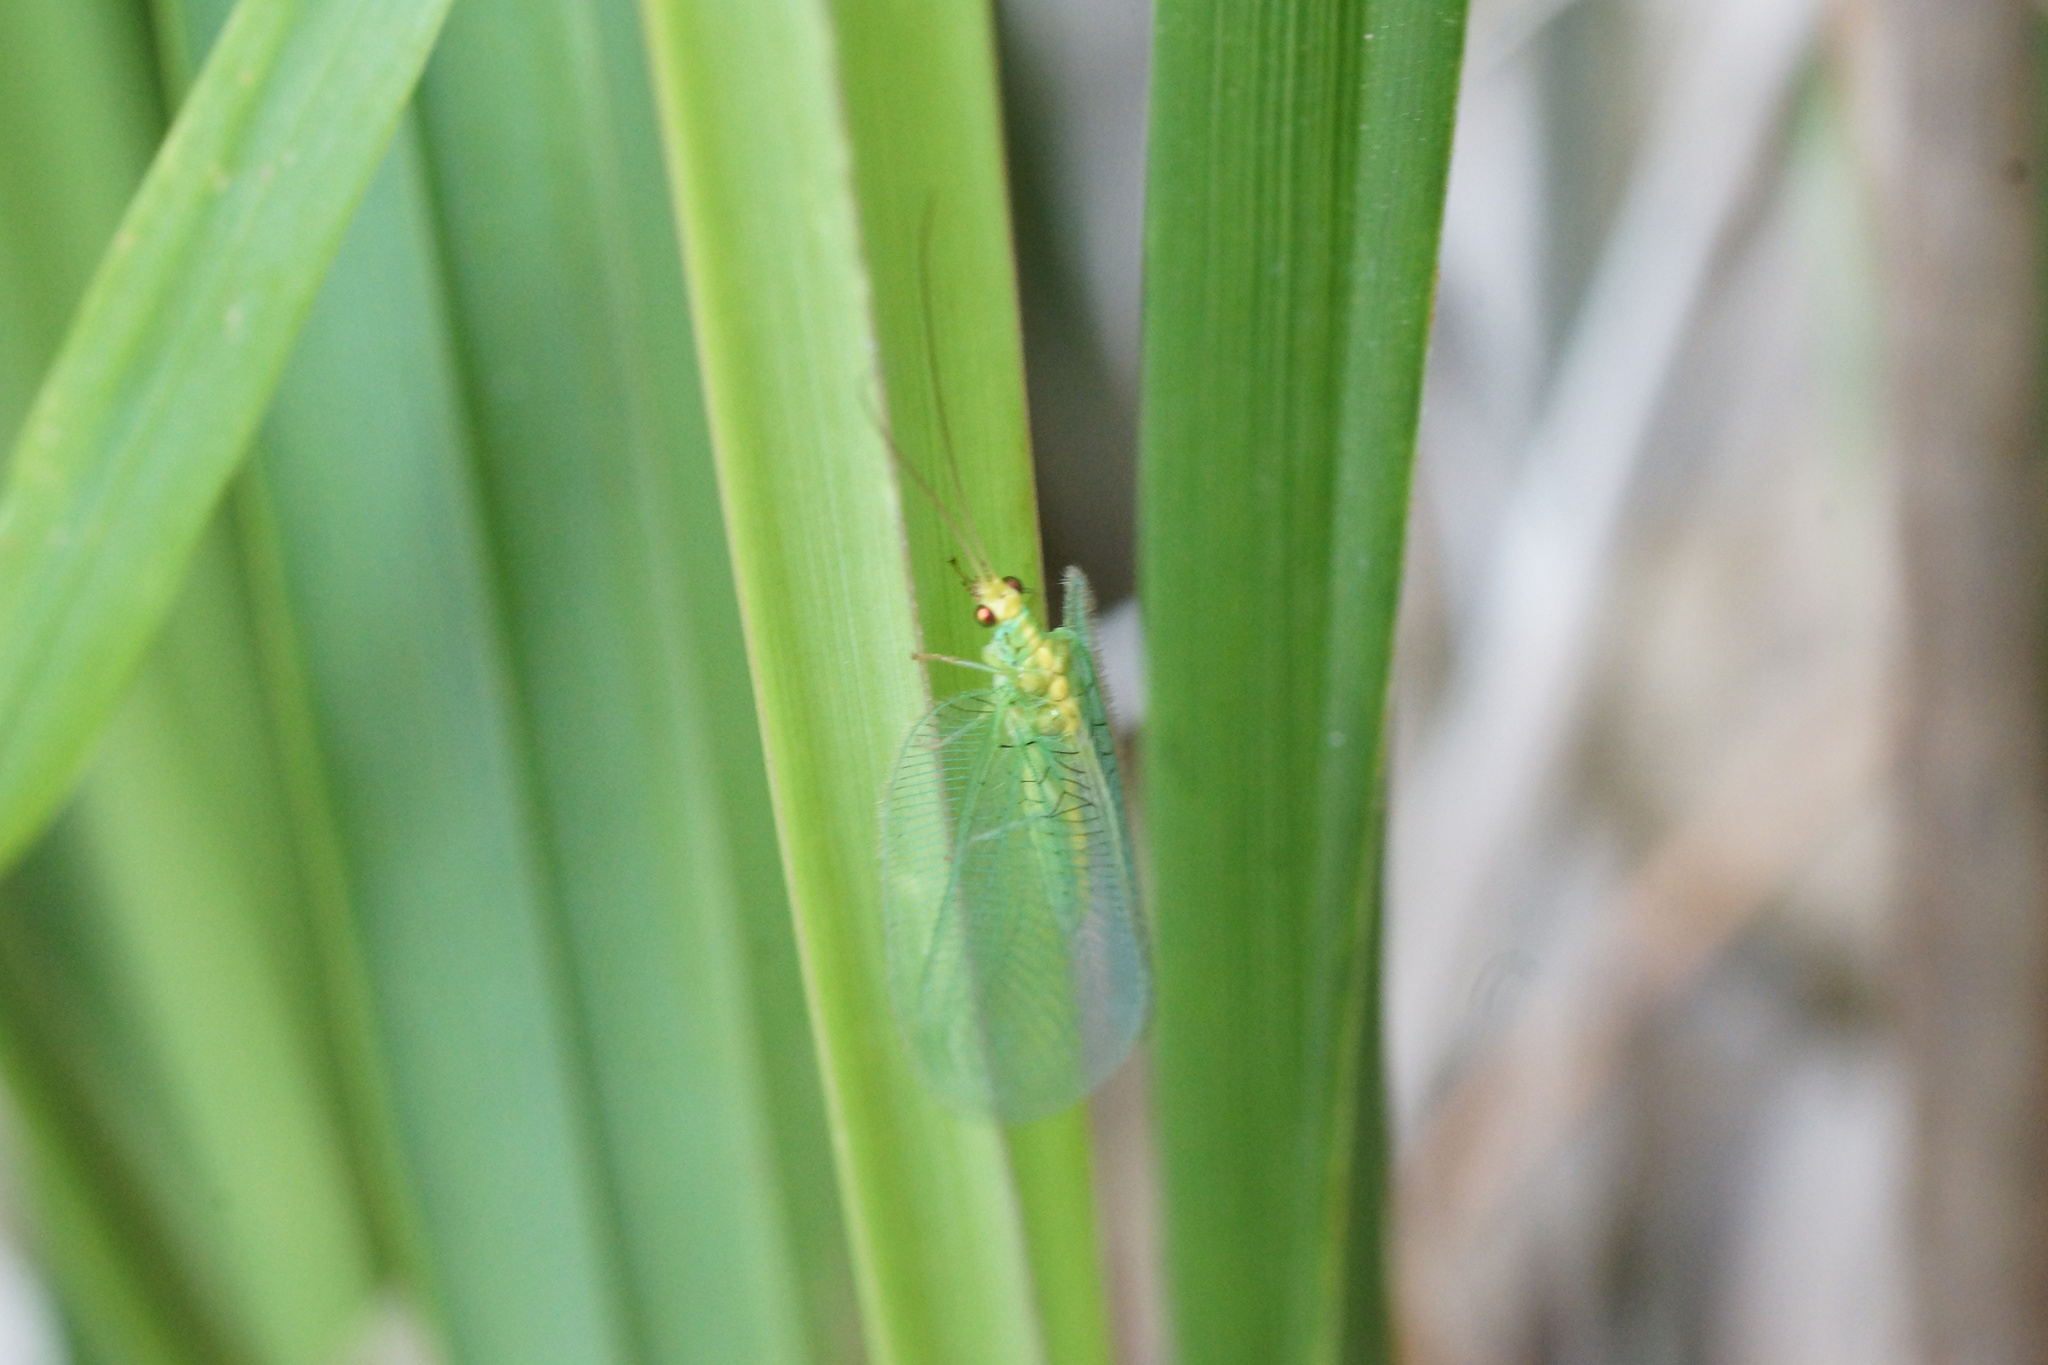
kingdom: Animalia
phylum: Arthropoda
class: Insecta
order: Neuroptera
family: Chrysopidae
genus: Nothancyla
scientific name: Nothancyla verreauxi
